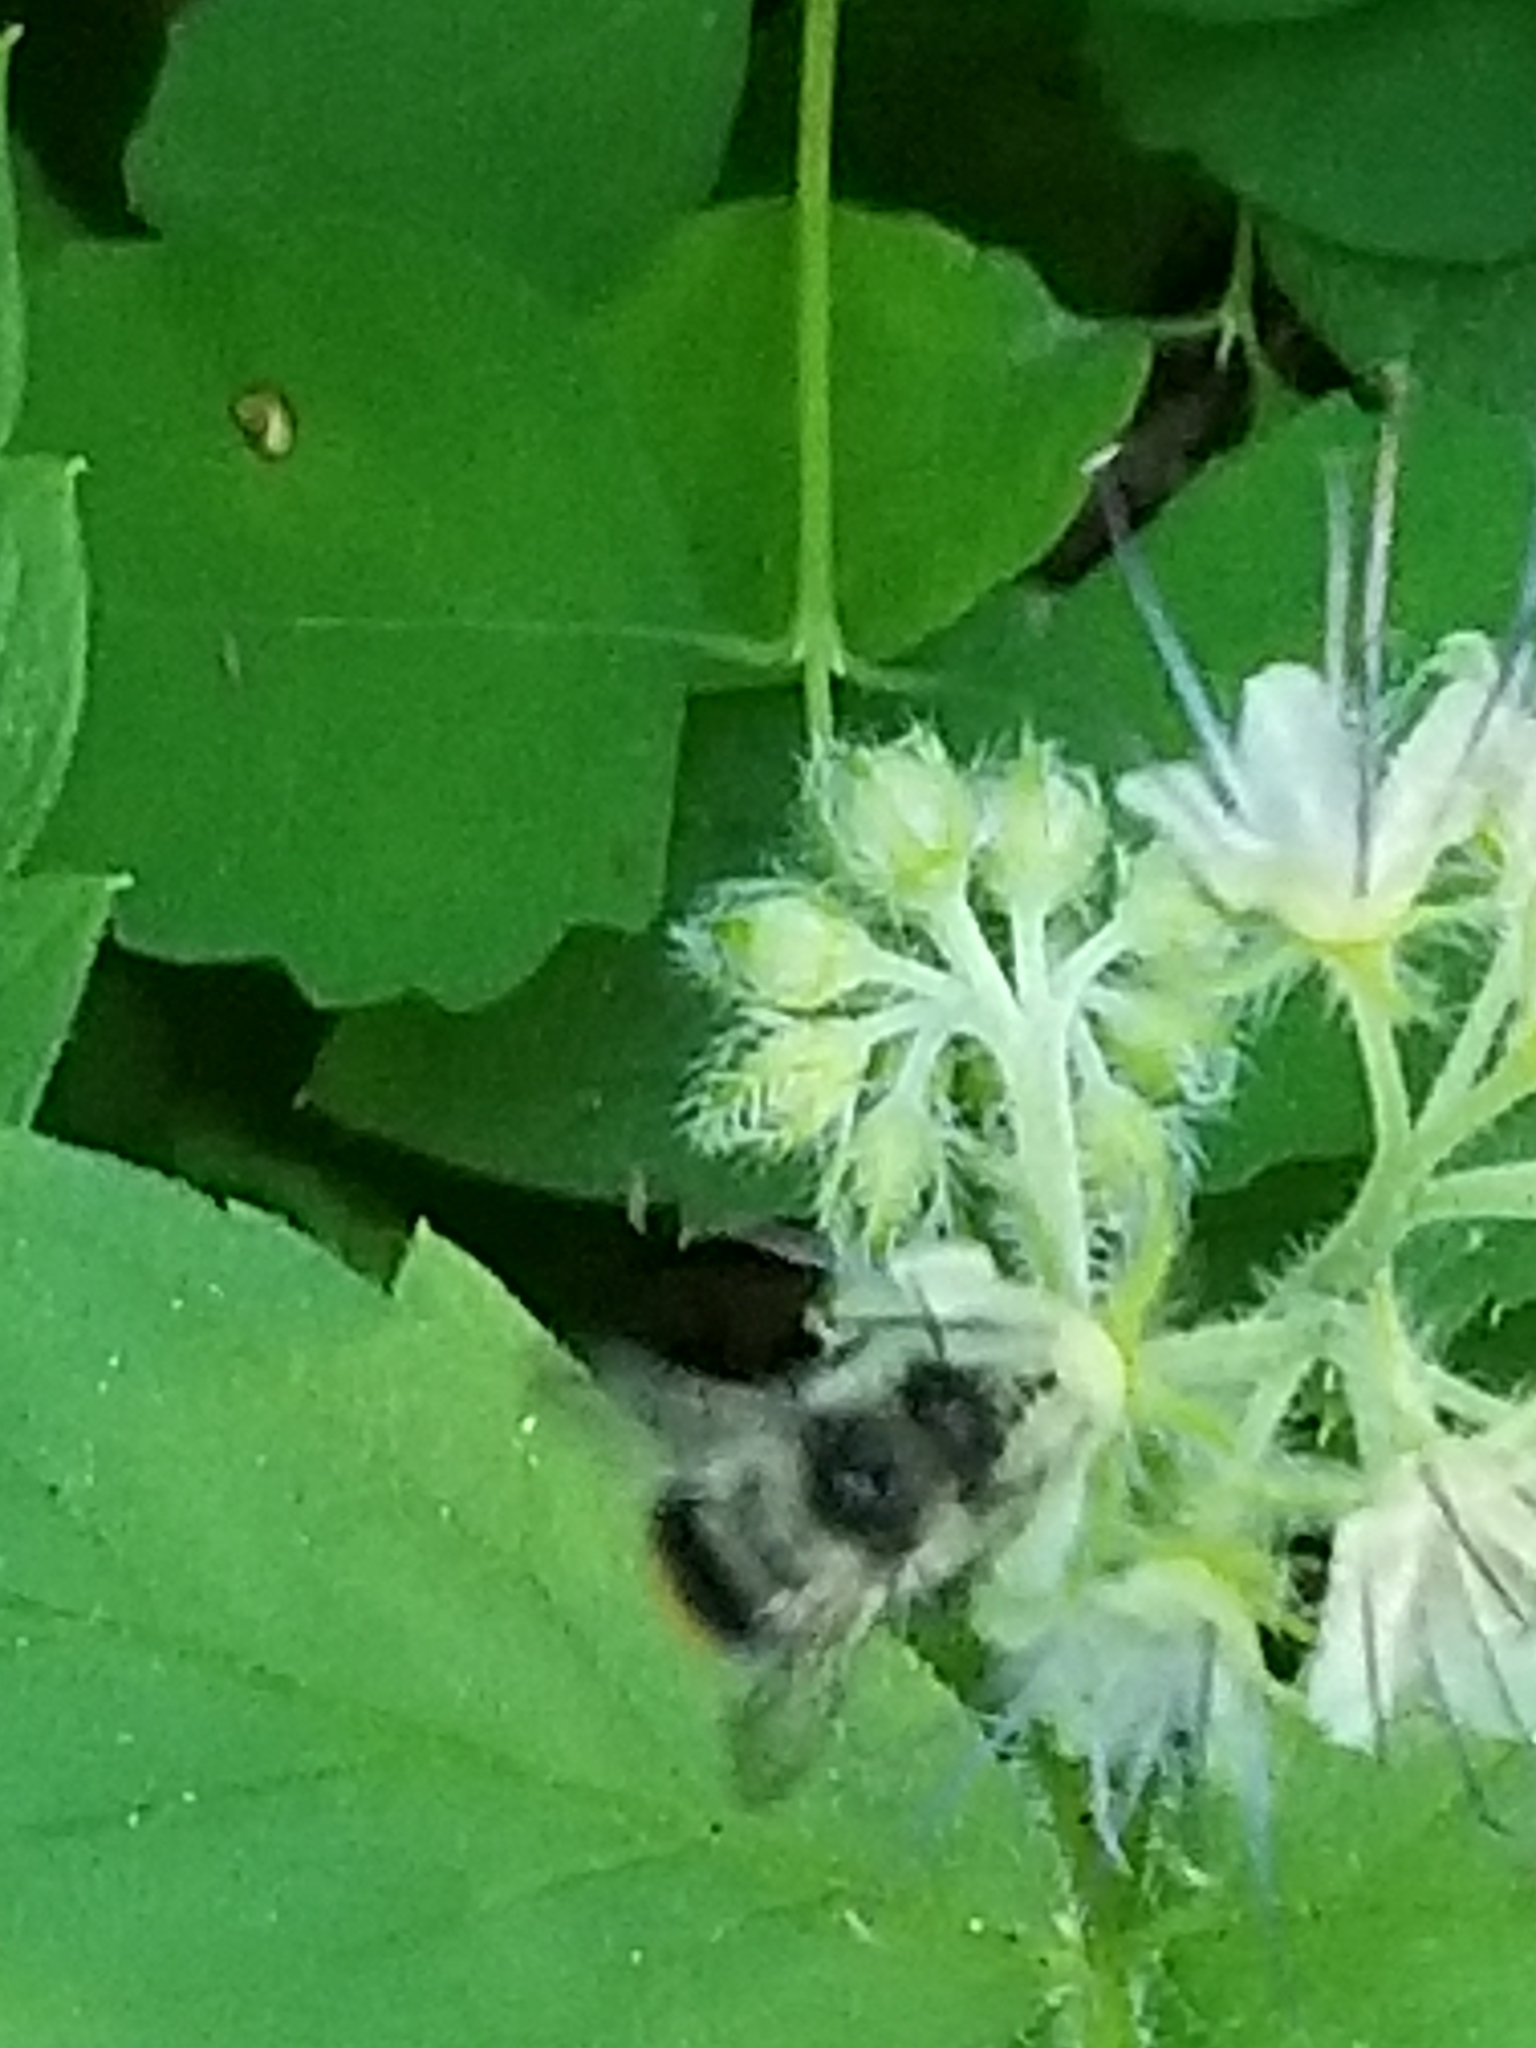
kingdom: Animalia
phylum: Arthropoda
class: Insecta
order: Hymenoptera
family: Apidae
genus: Bombus
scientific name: Bombus mixtus
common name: Fuzzy-horned bumble bee
